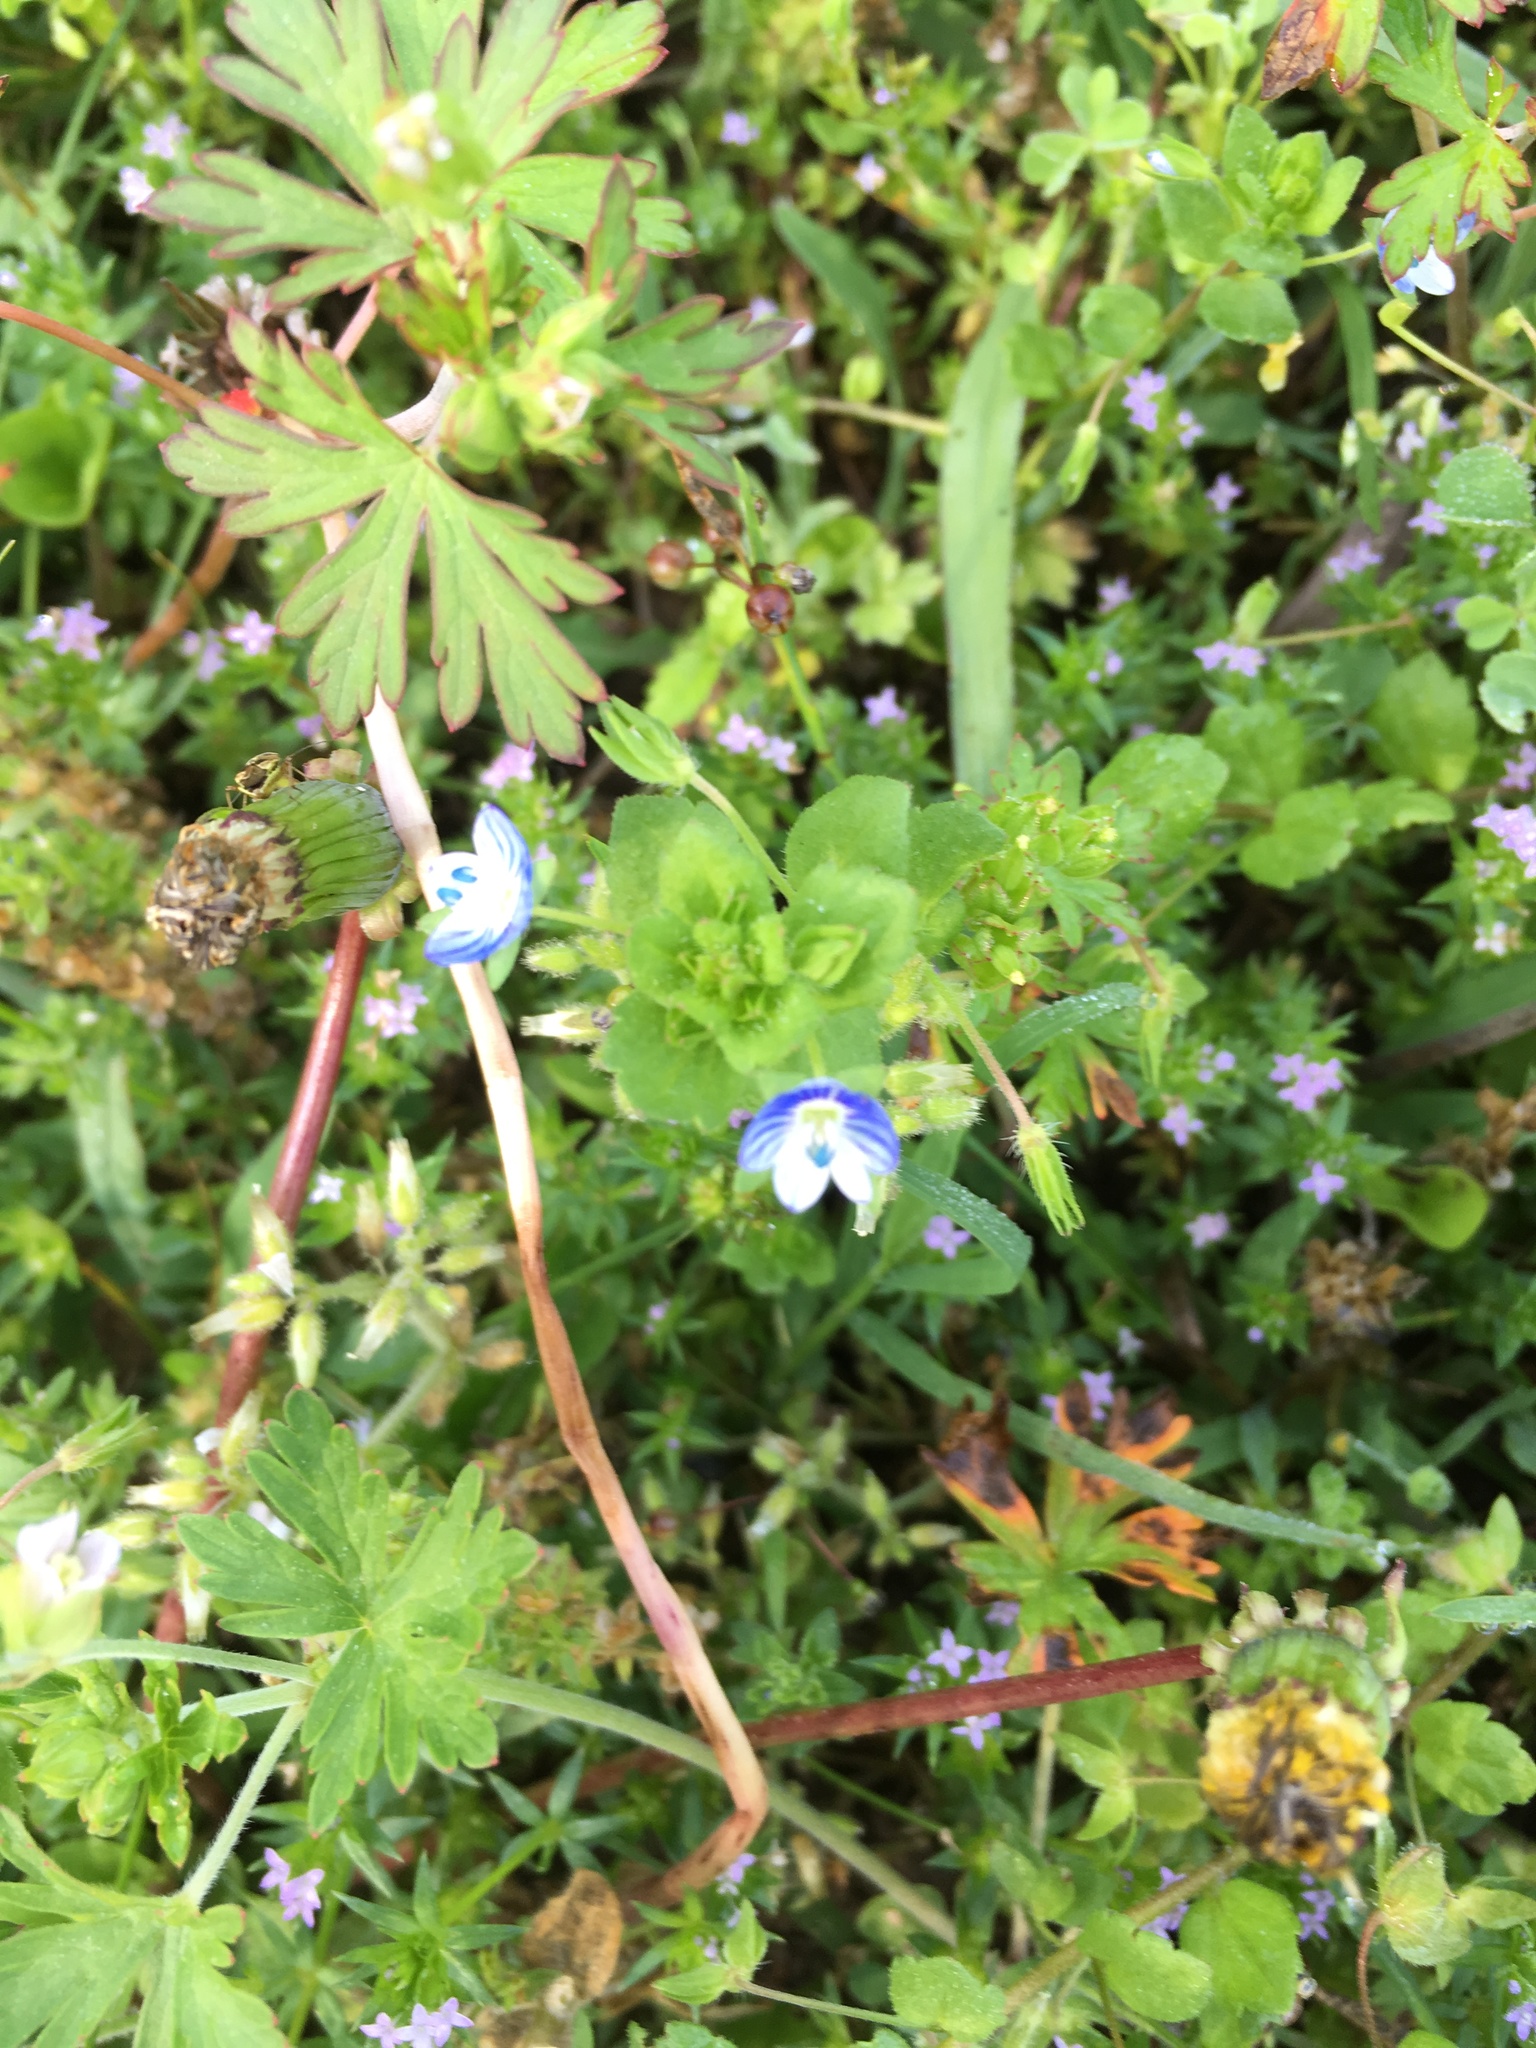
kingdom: Plantae
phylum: Tracheophyta
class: Magnoliopsida
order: Lamiales
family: Plantaginaceae
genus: Veronica
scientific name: Veronica persica
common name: Common field-speedwell
